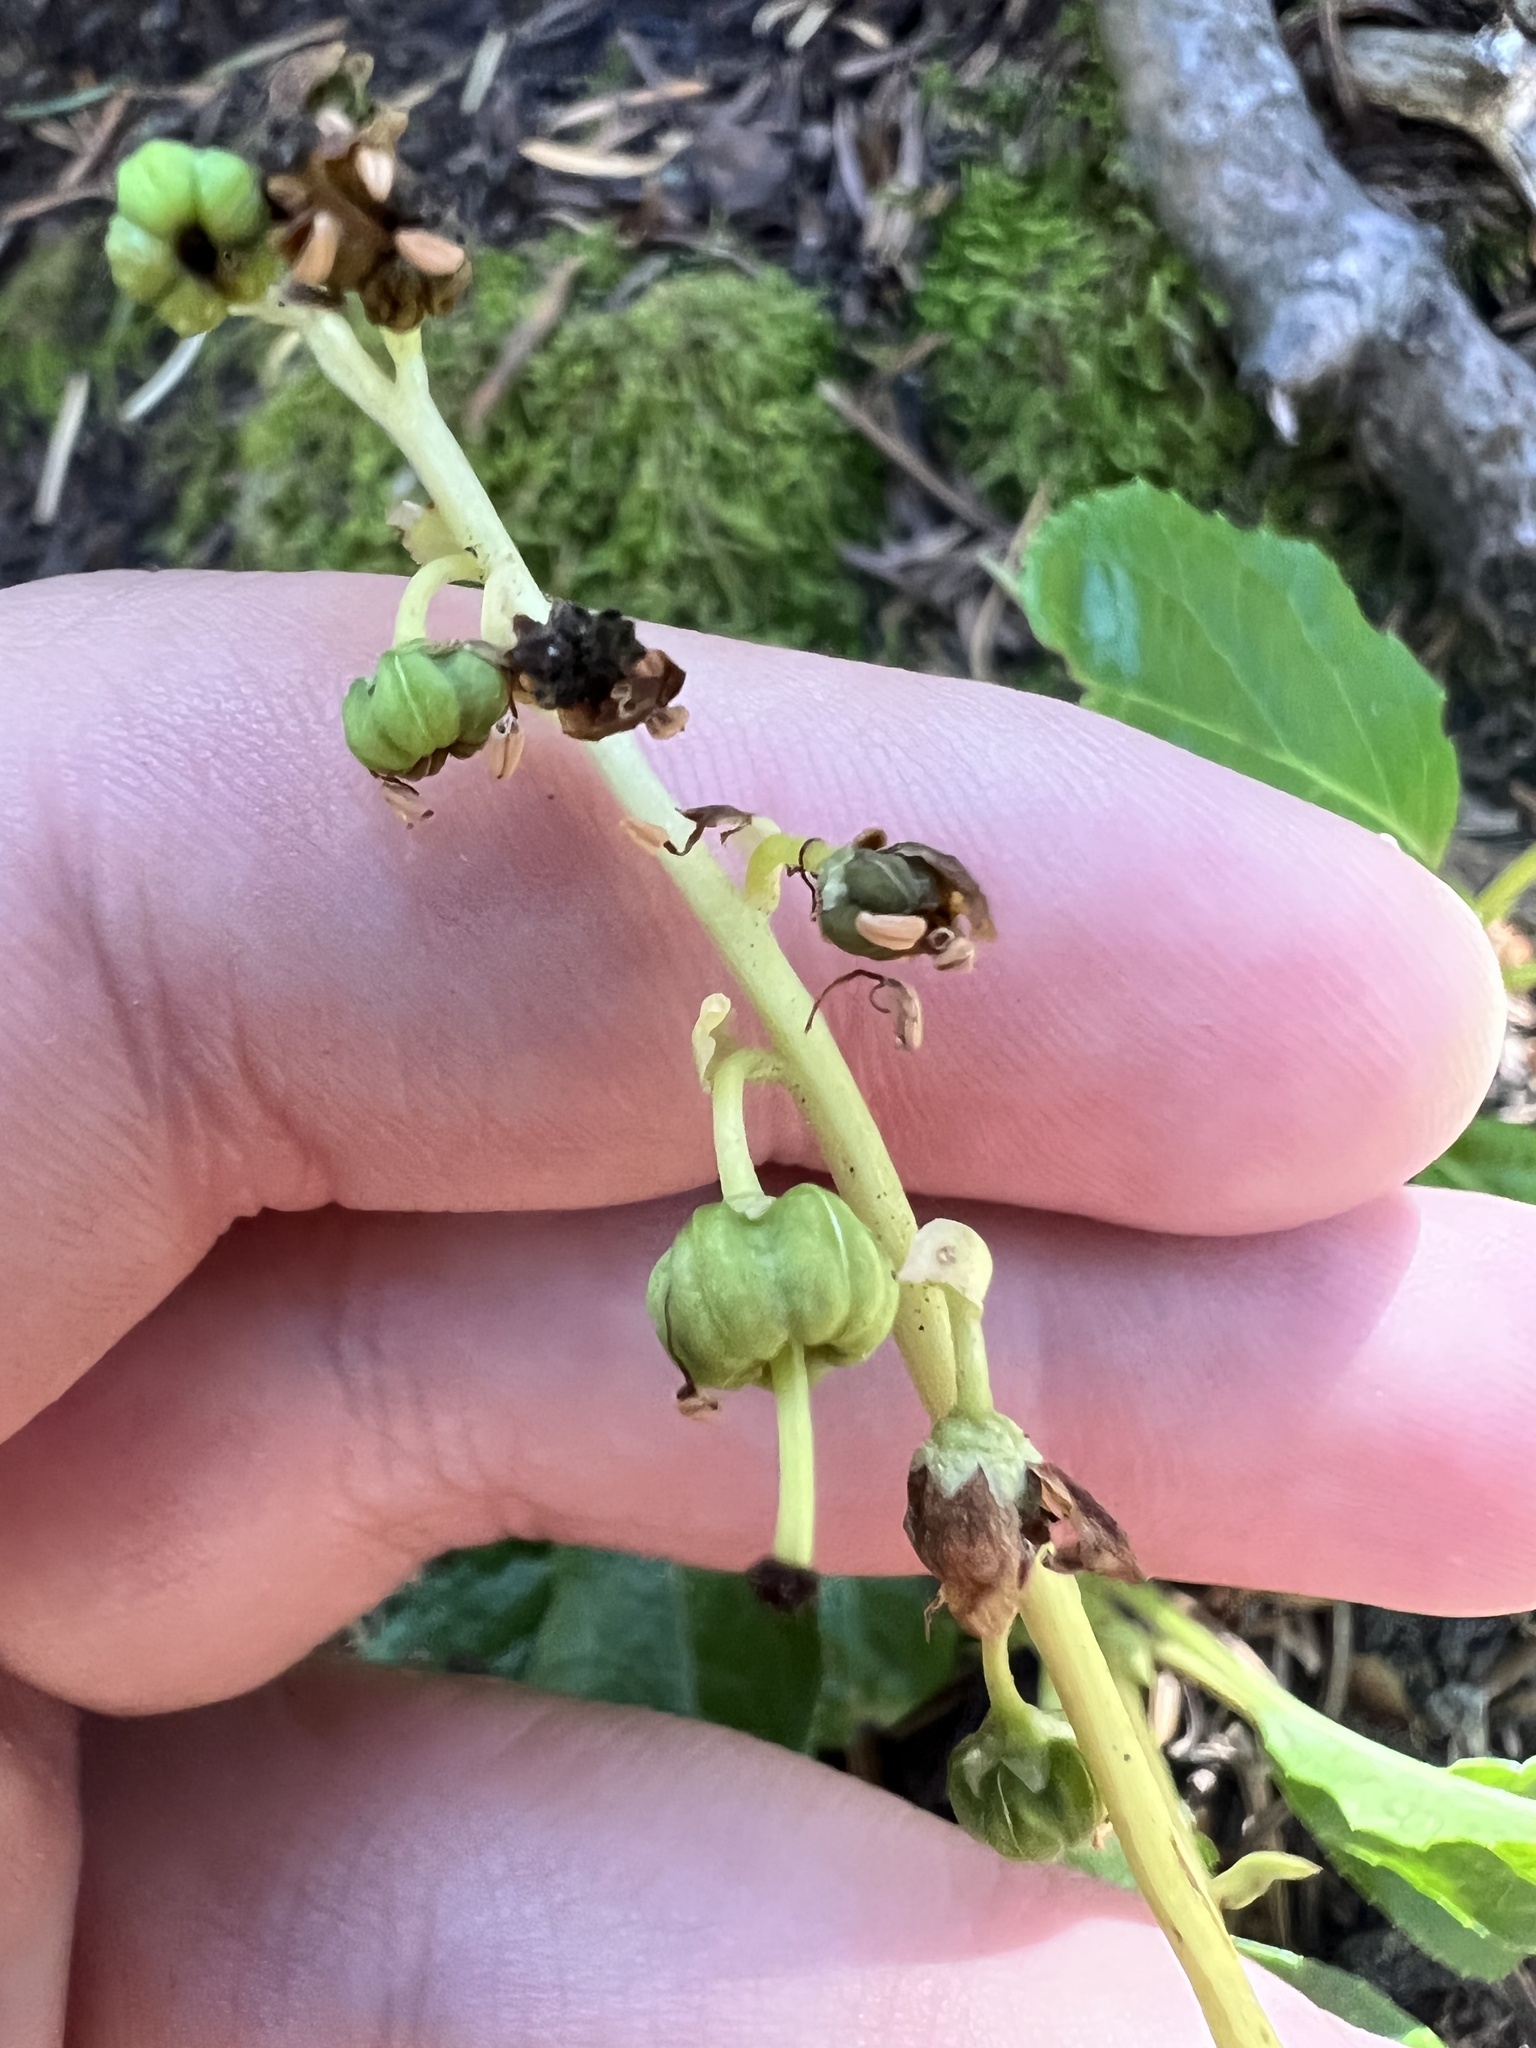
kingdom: Plantae
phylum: Tracheophyta
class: Magnoliopsida
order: Ericales
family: Ericaceae
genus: Orthilia
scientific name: Orthilia secunda
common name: One-sided orthilia
